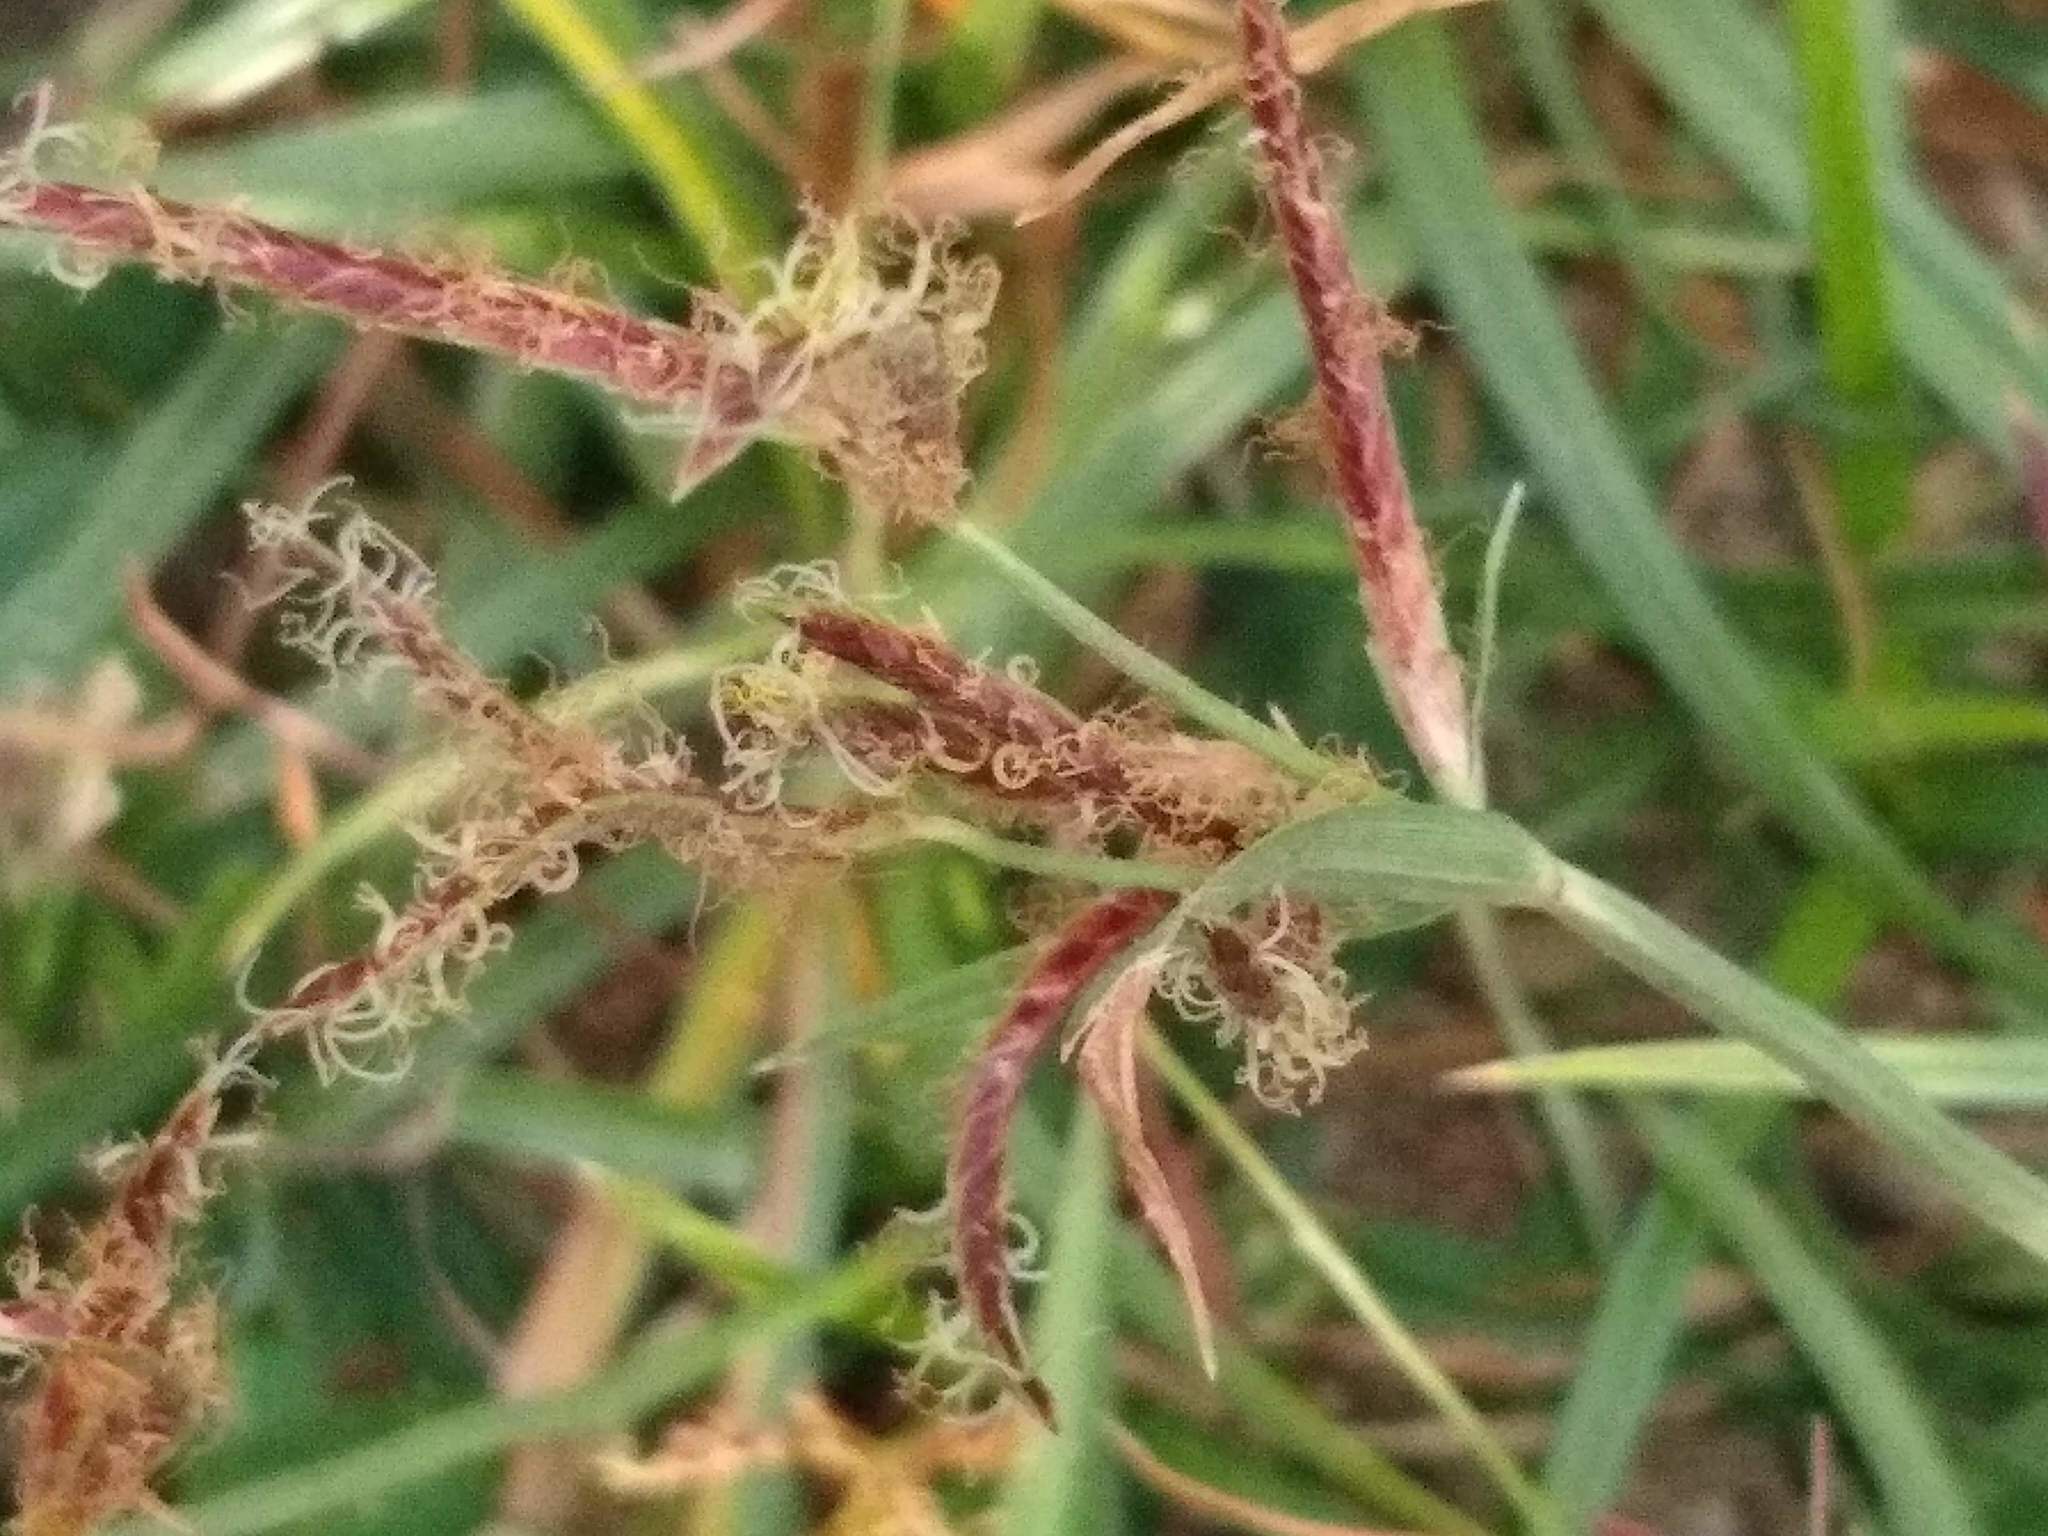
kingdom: Plantae
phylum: Tracheophyta
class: Liliopsida
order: Poales
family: Cyperaceae
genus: Cyperus
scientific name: Cyperus rotundus
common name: Nutgrass
